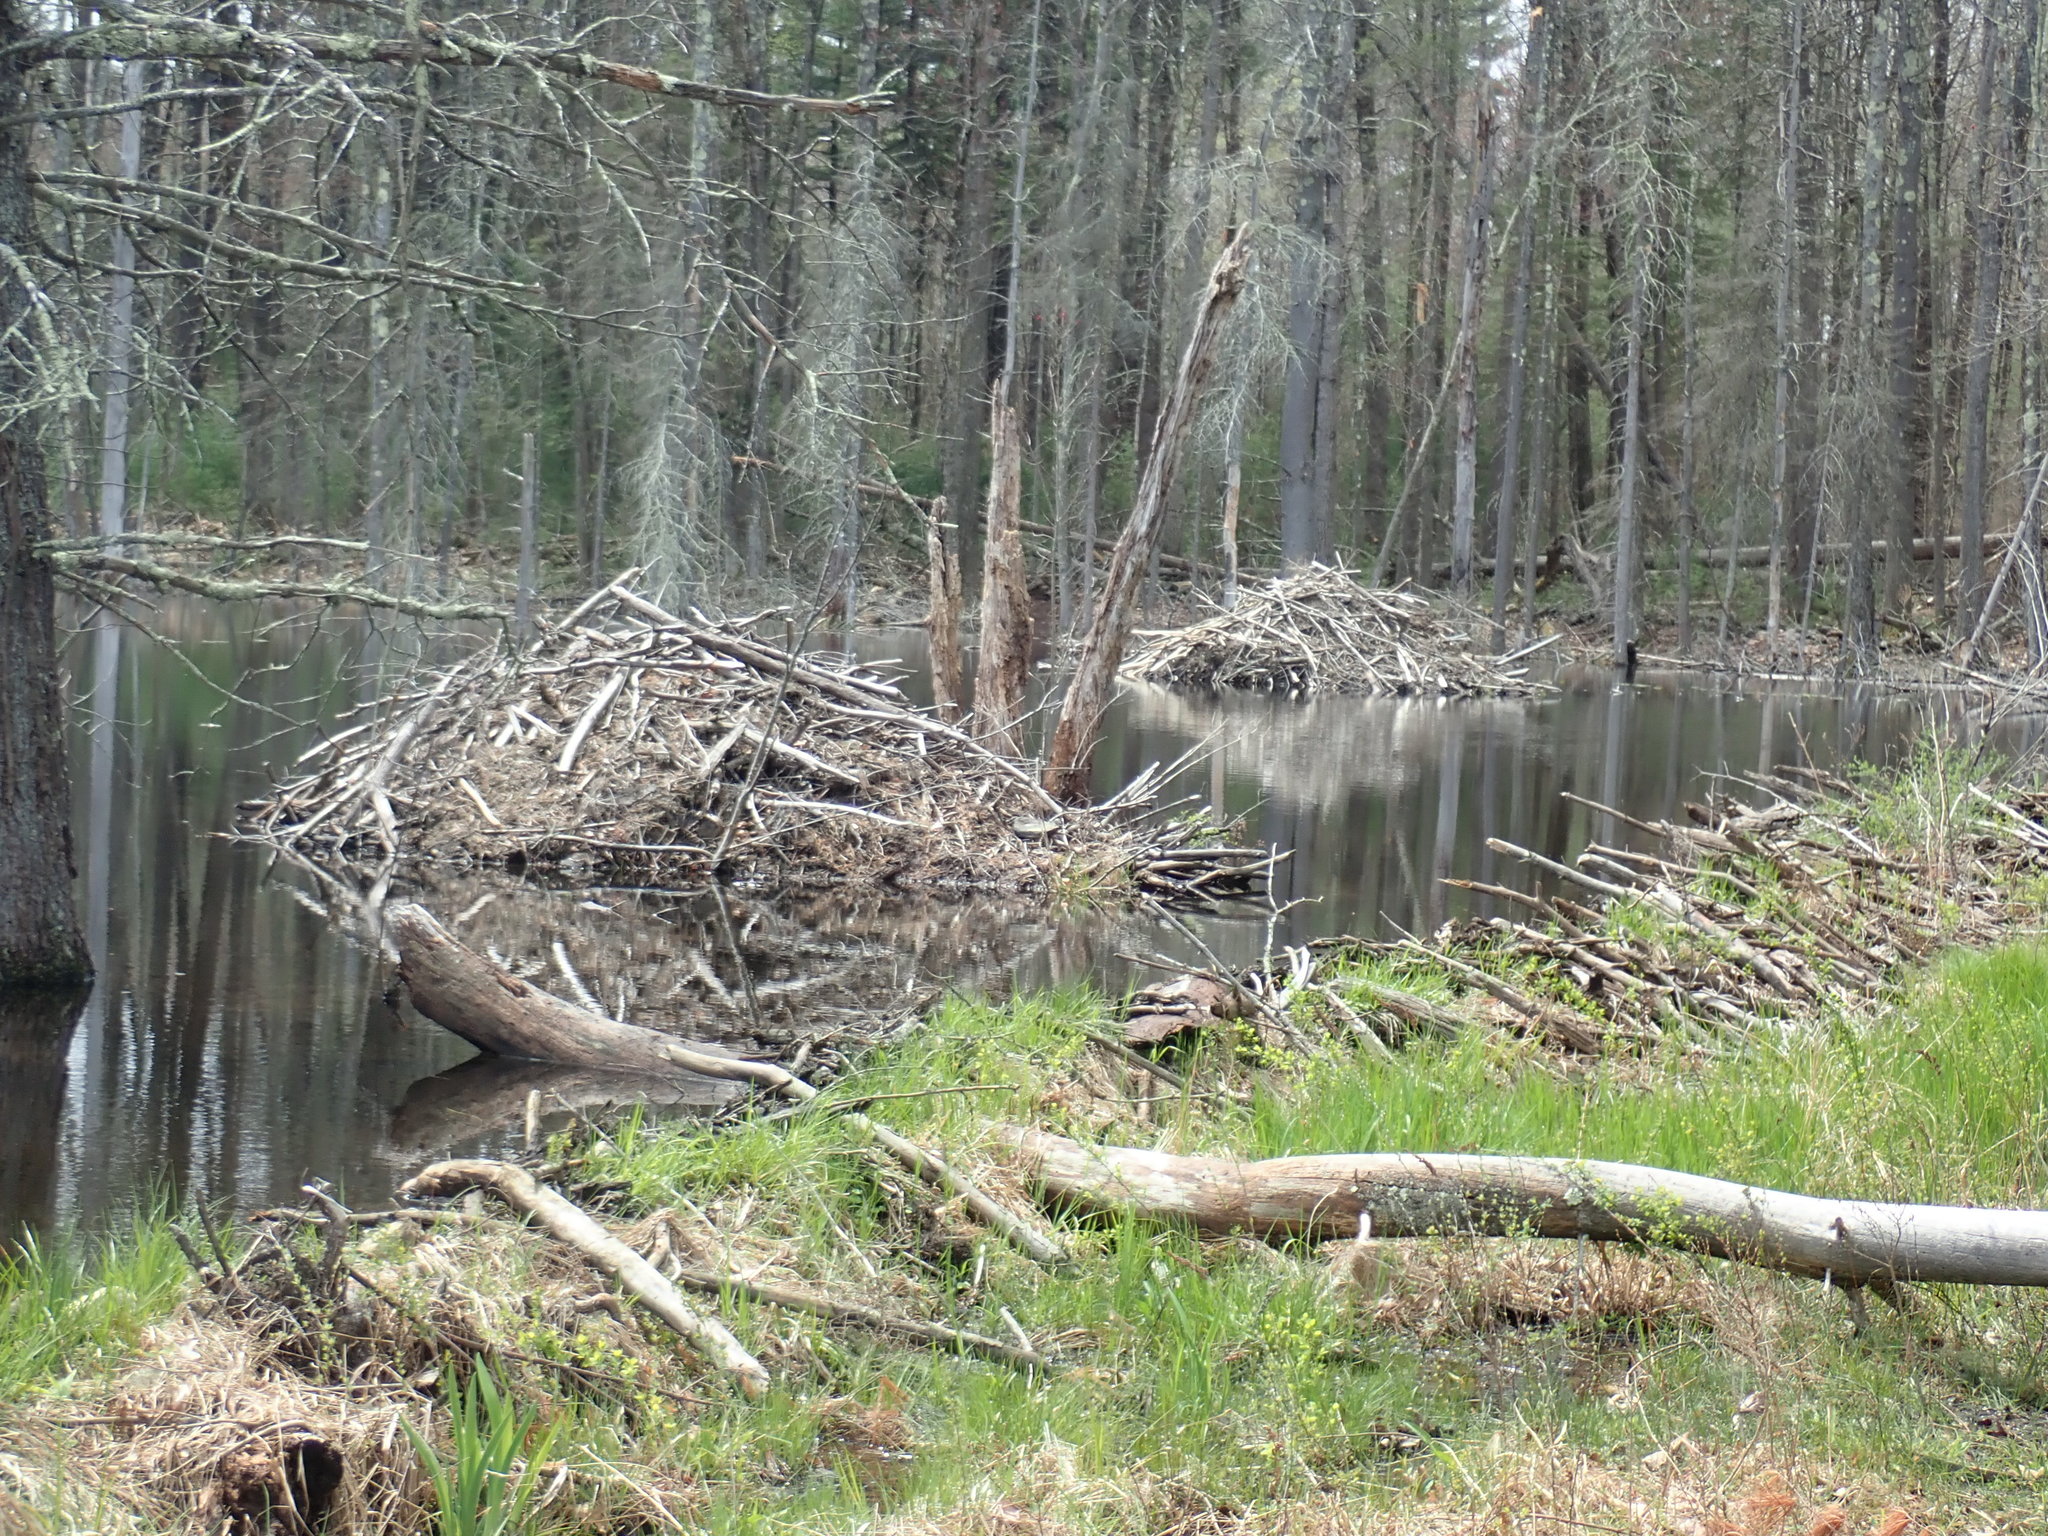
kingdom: Animalia
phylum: Chordata
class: Mammalia
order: Rodentia
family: Castoridae
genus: Castor
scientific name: Castor canadensis
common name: American beaver
